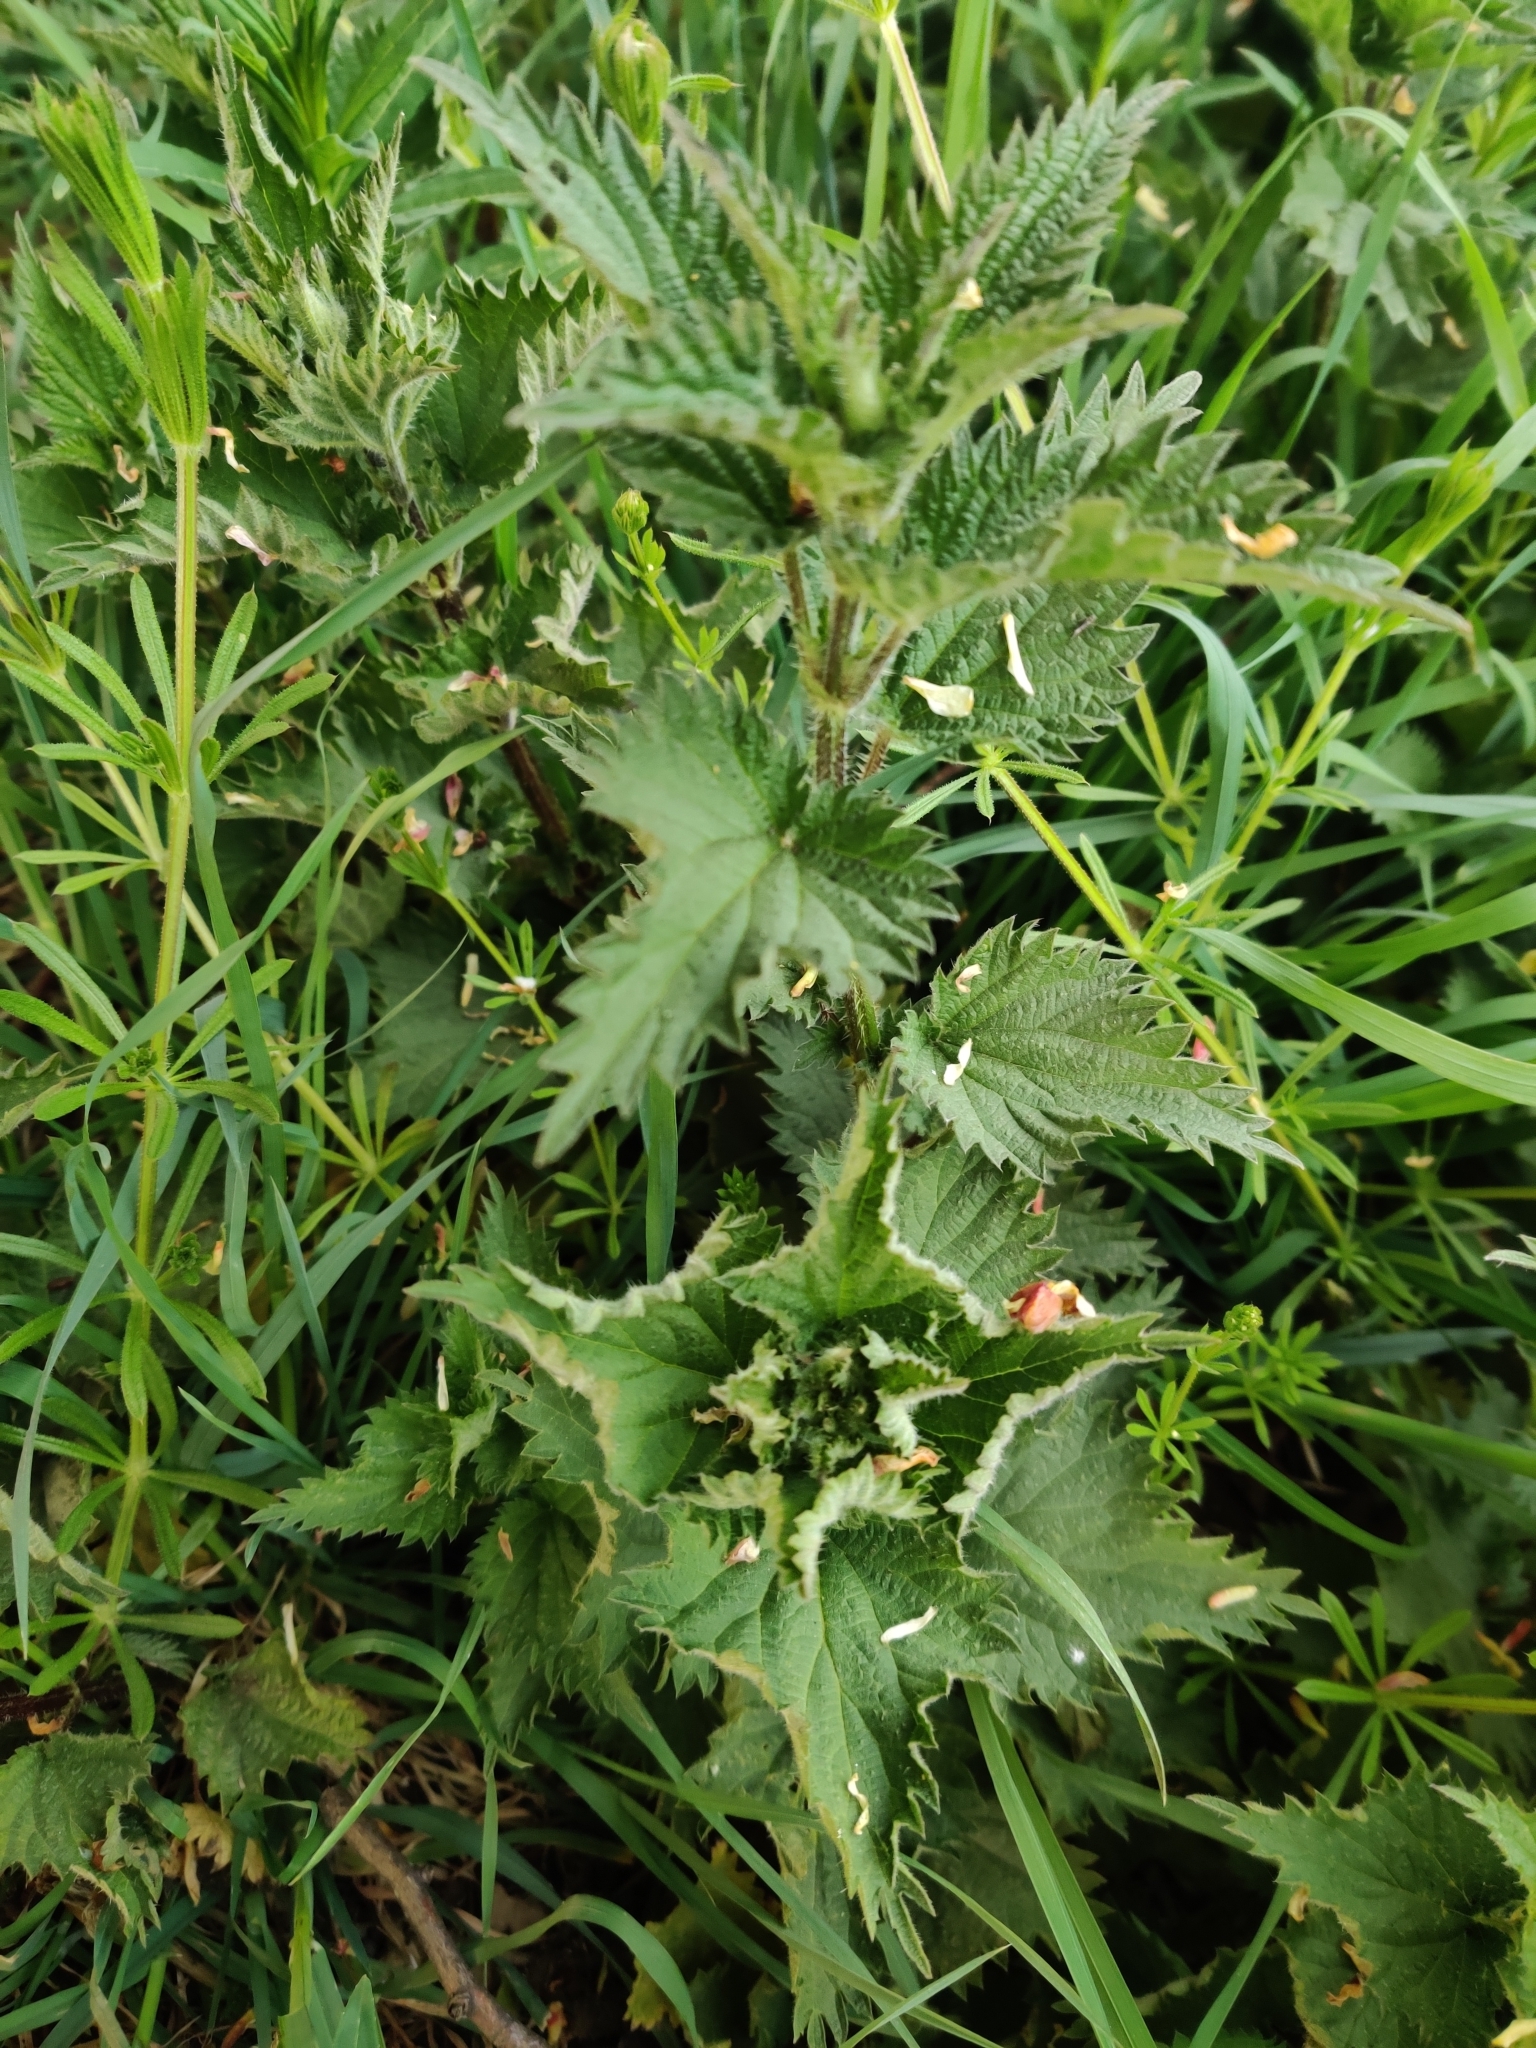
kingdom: Plantae
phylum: Tracheophyta
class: Magnoliopsida
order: Rosales
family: Urticaceae
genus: Urtica
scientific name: Urtica dioica
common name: Common nettle
